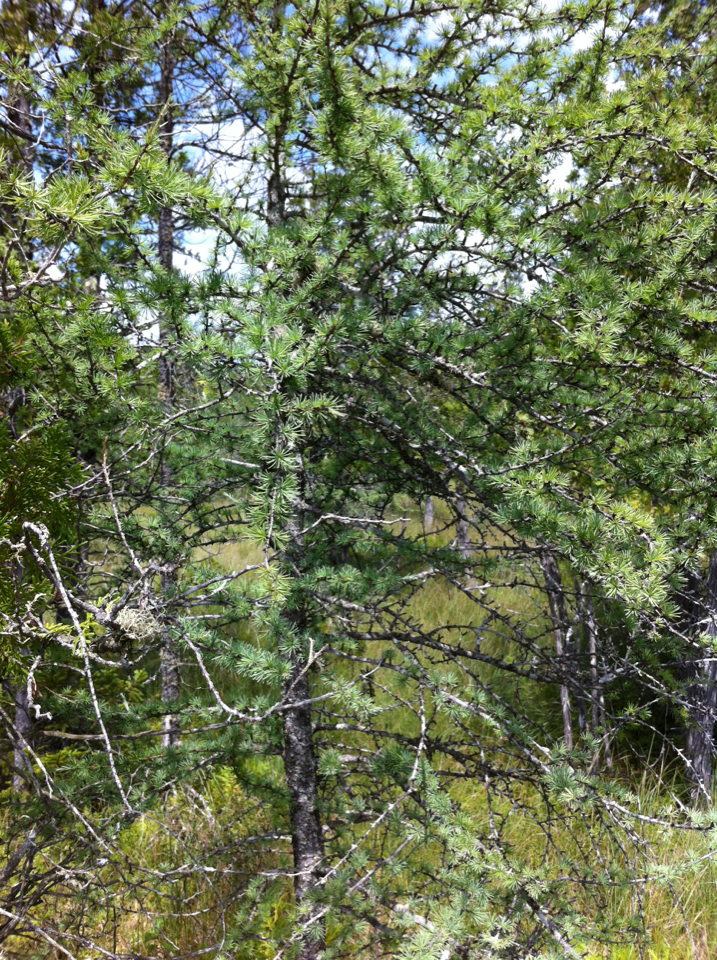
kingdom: Plantae
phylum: Tracheophyta
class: Pinopsida
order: Pinales
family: Pinaceae
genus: Larix
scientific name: Larix laricina
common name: American larch
